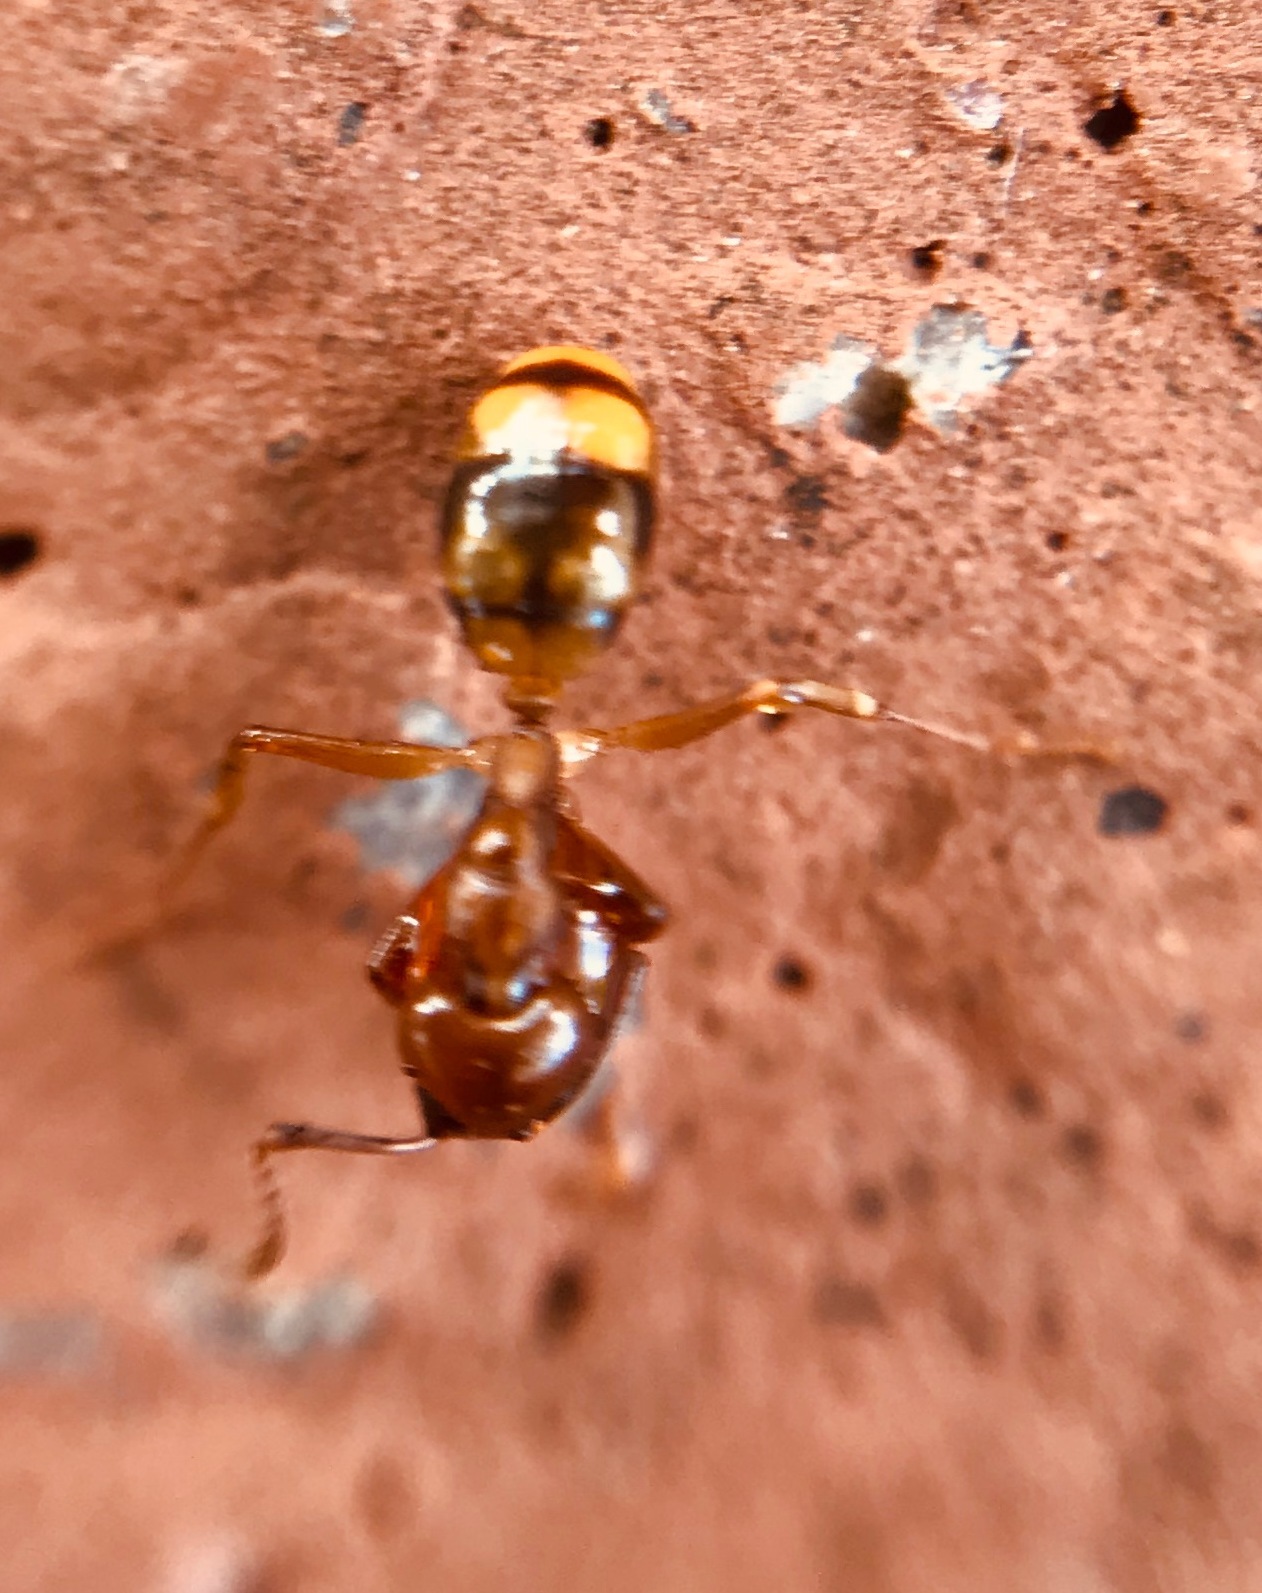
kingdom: Animalia
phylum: Arthropoda
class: Insecta
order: Hymenoptera
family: Formicidae
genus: Dolichoderus
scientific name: Dolichoderus lutosus
